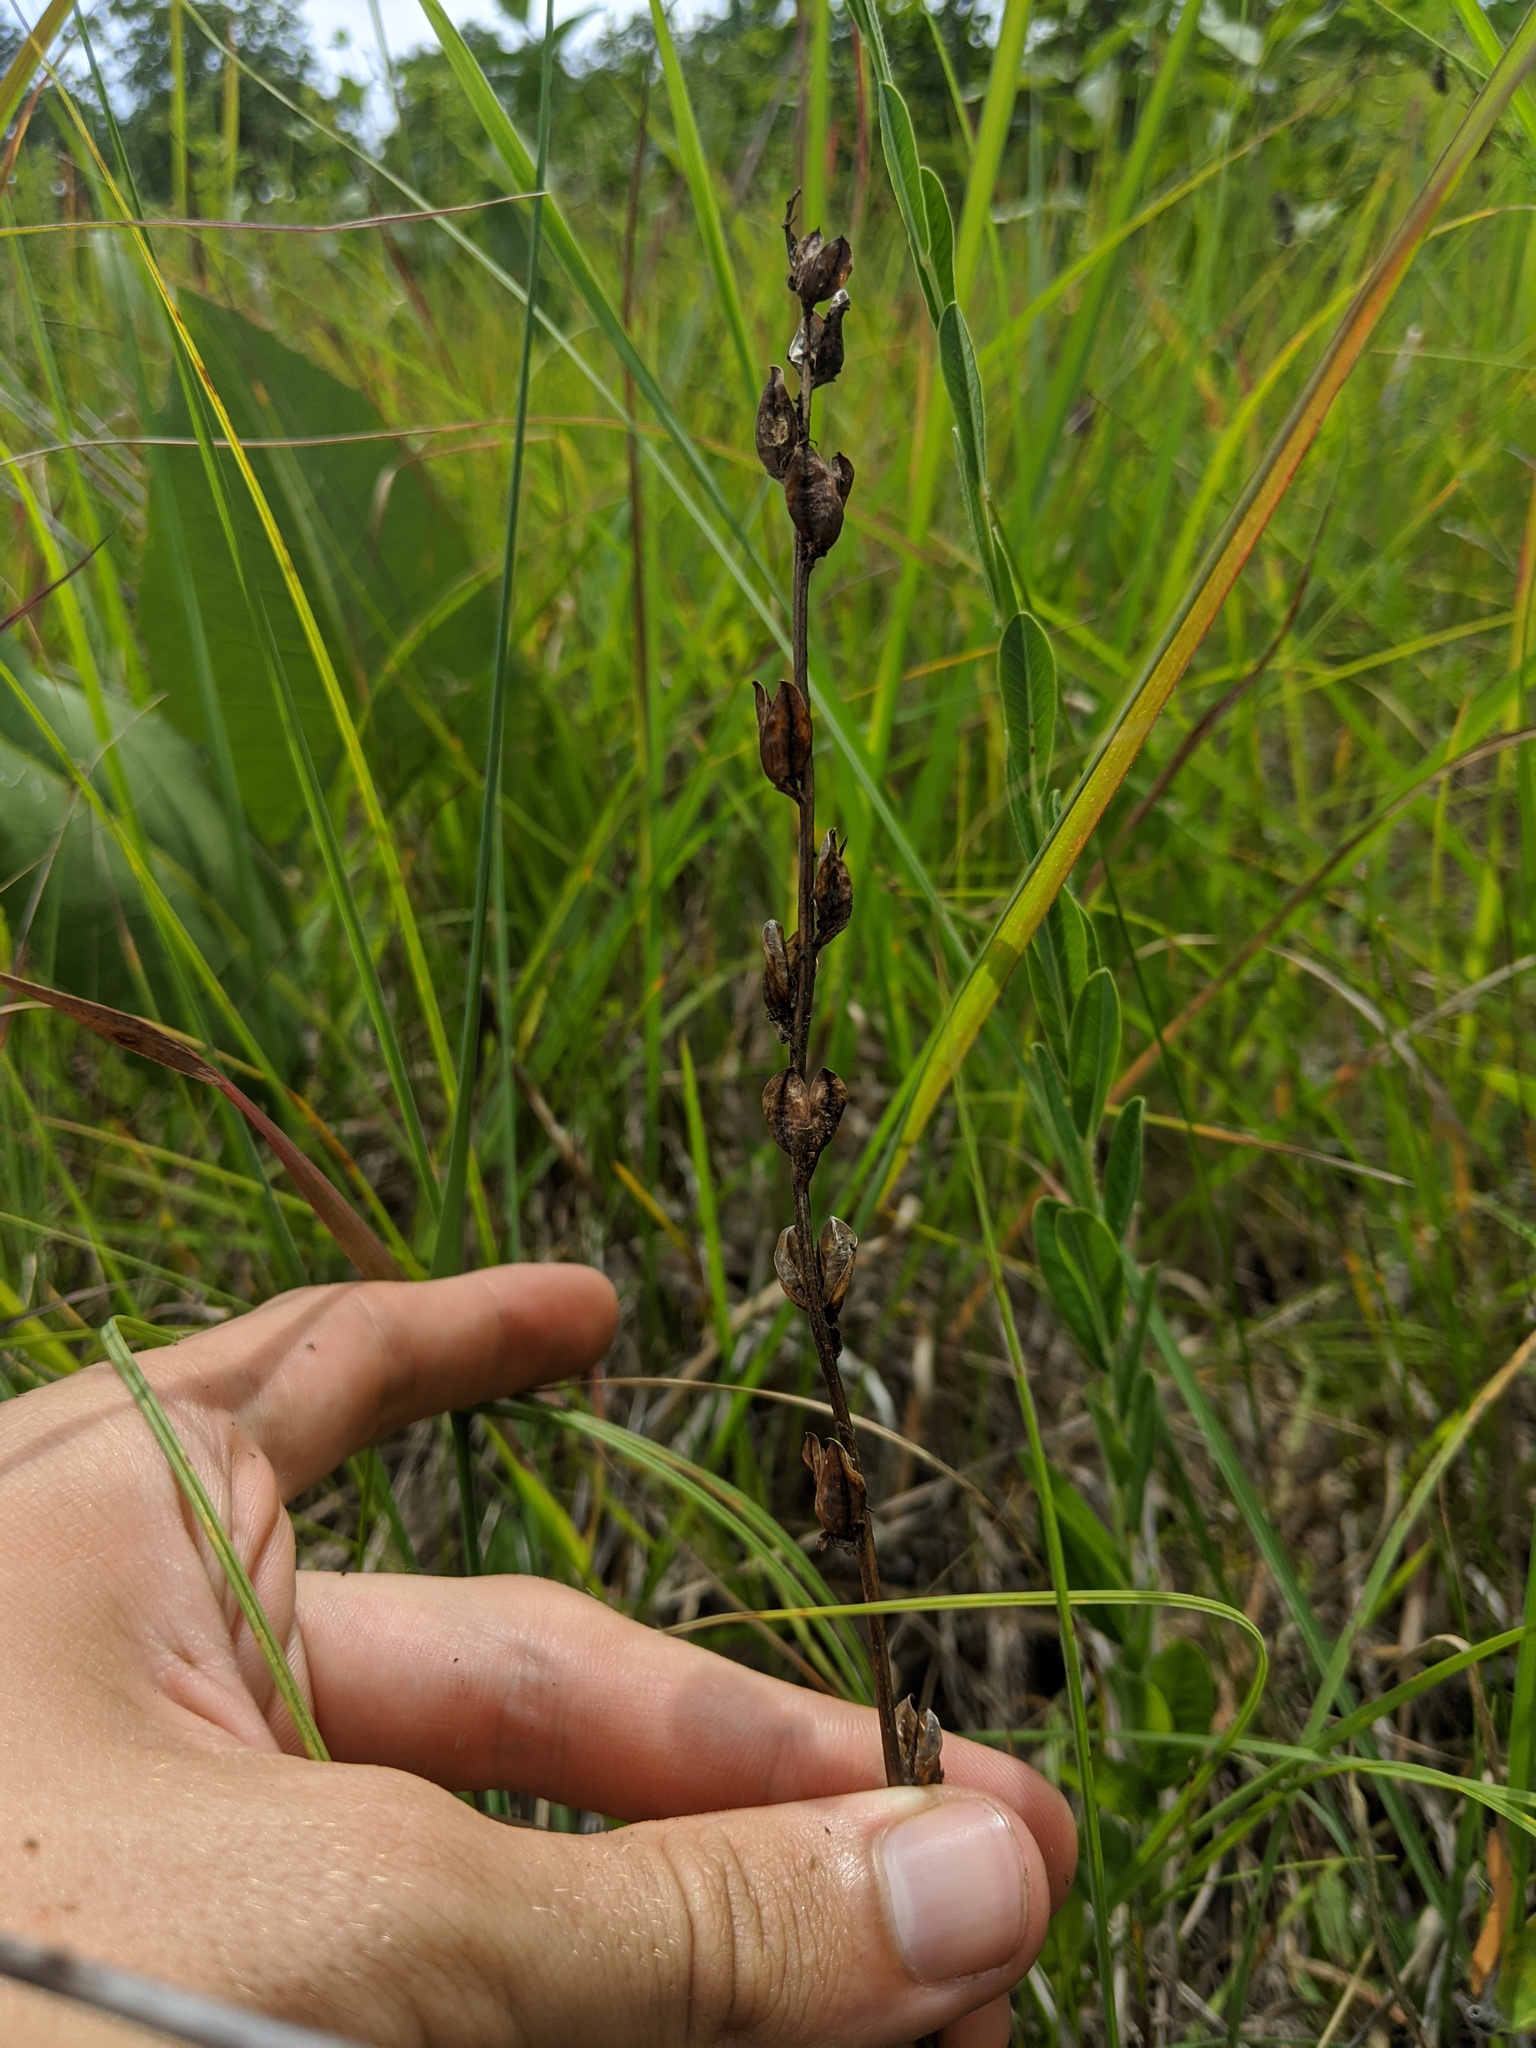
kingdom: Plantae
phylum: Tracheophyta
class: Magnoliopsida
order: Lamiales
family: Orobanchaceae
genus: Castilleja
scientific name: Castilleja coccinea
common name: Scarlet paintbrush
